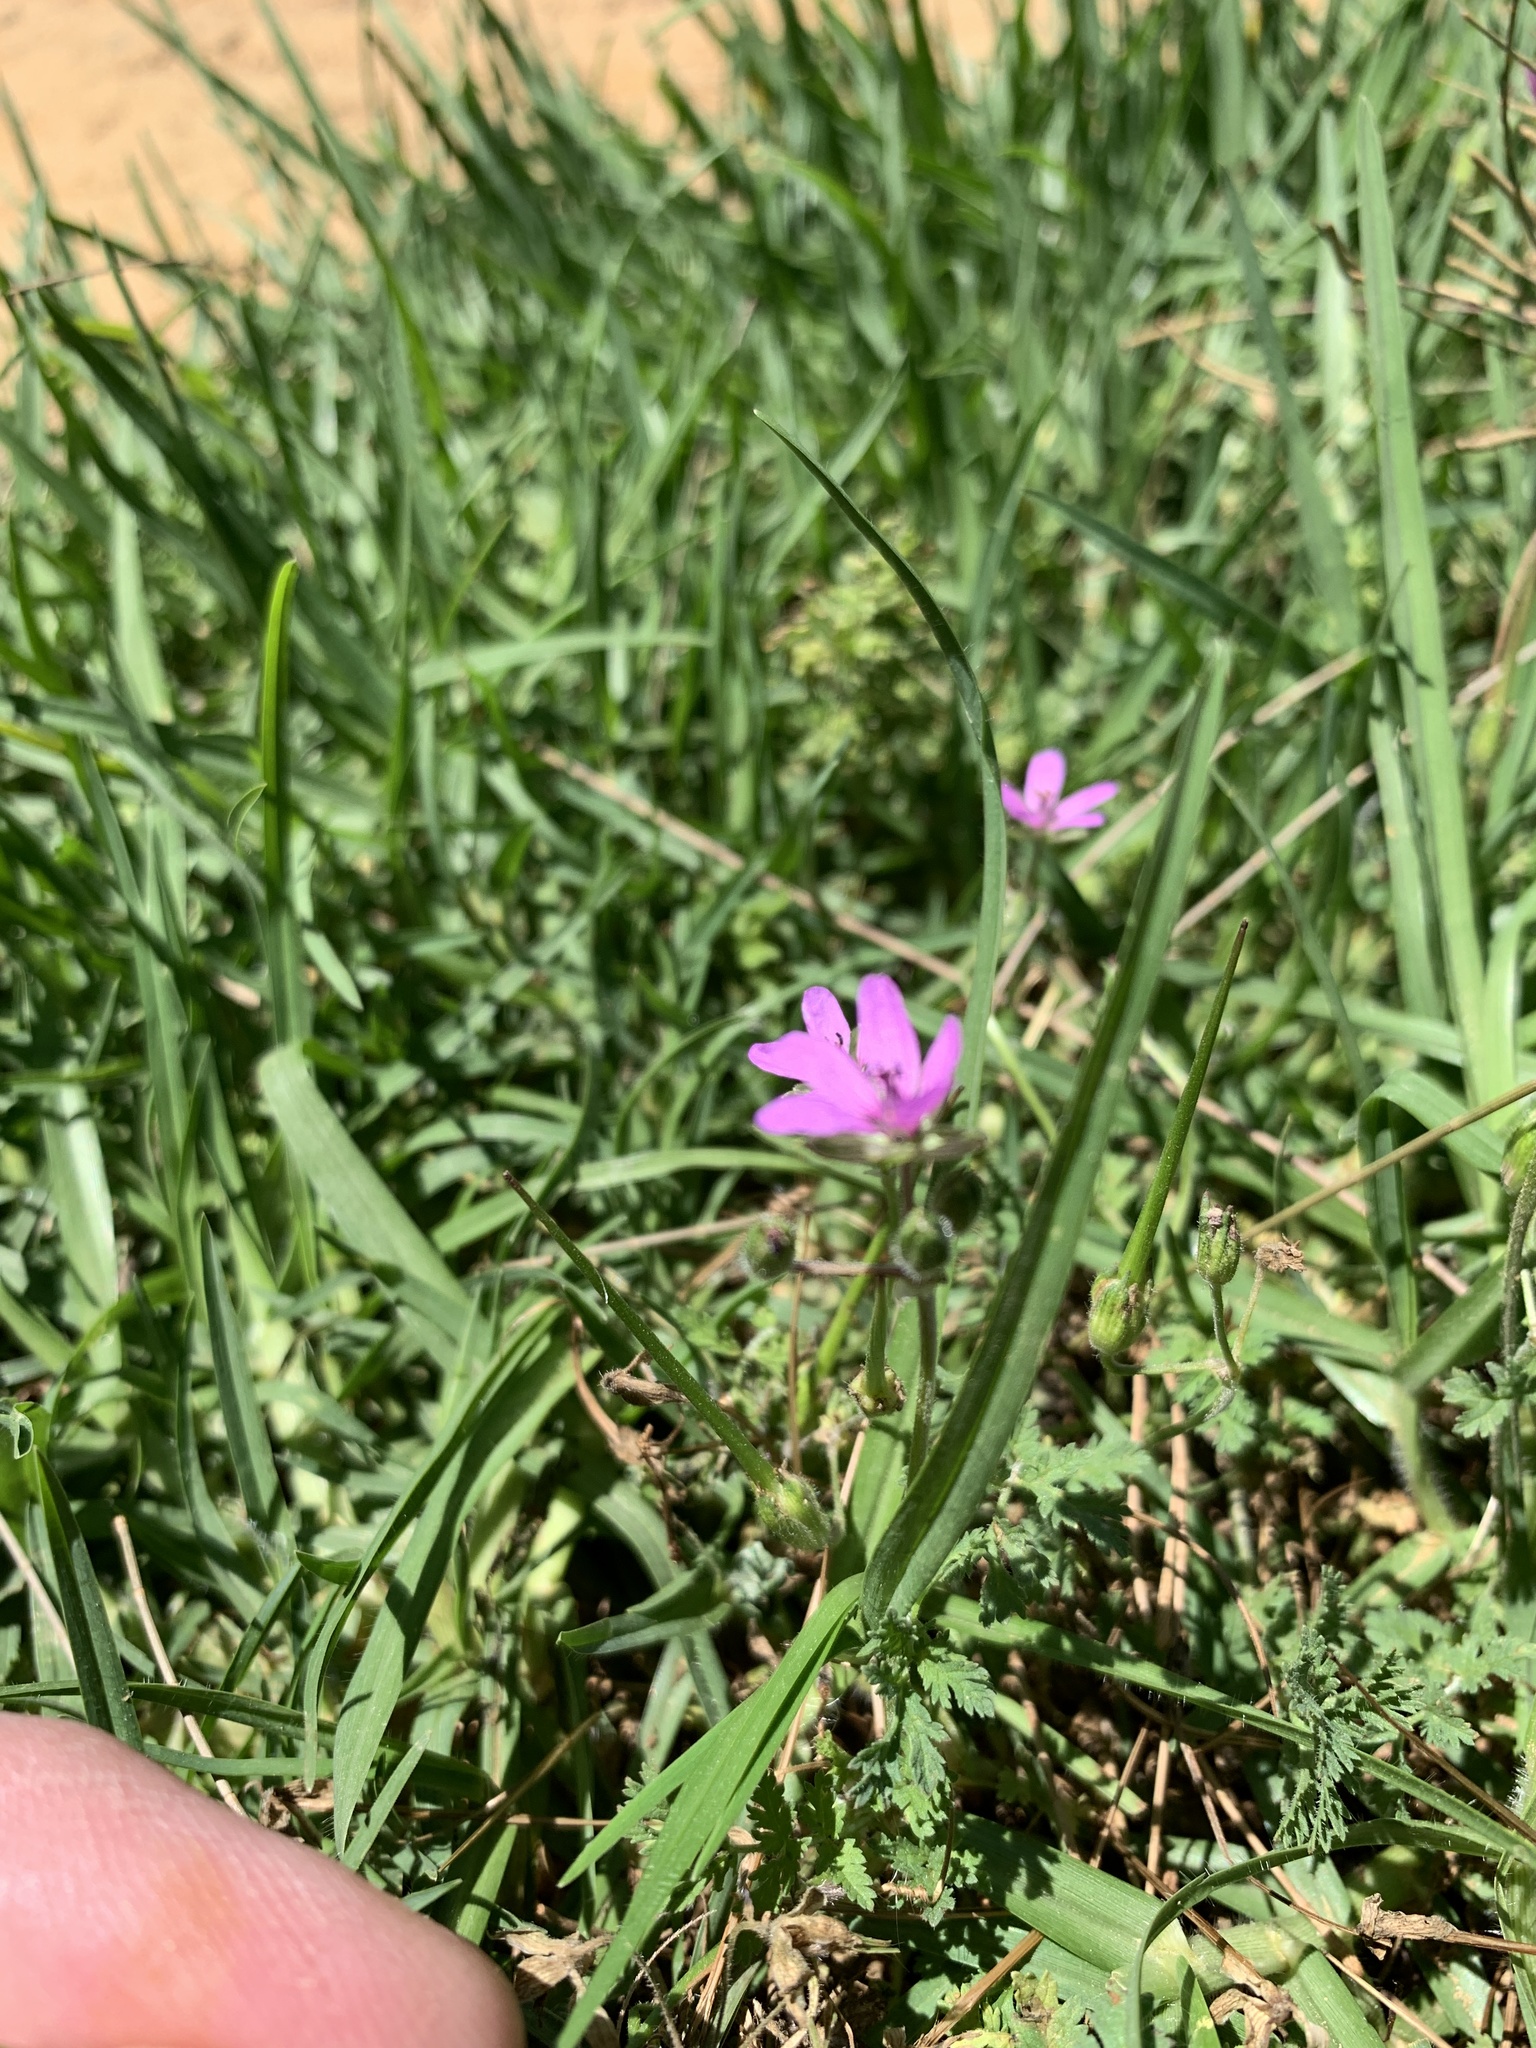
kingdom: Plantae
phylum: Tracheophyta
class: Magnoliopsida
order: Geraniales
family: Geraniaceae
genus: Erodium
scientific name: Erodium moschatum
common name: Musk stork's-bill
